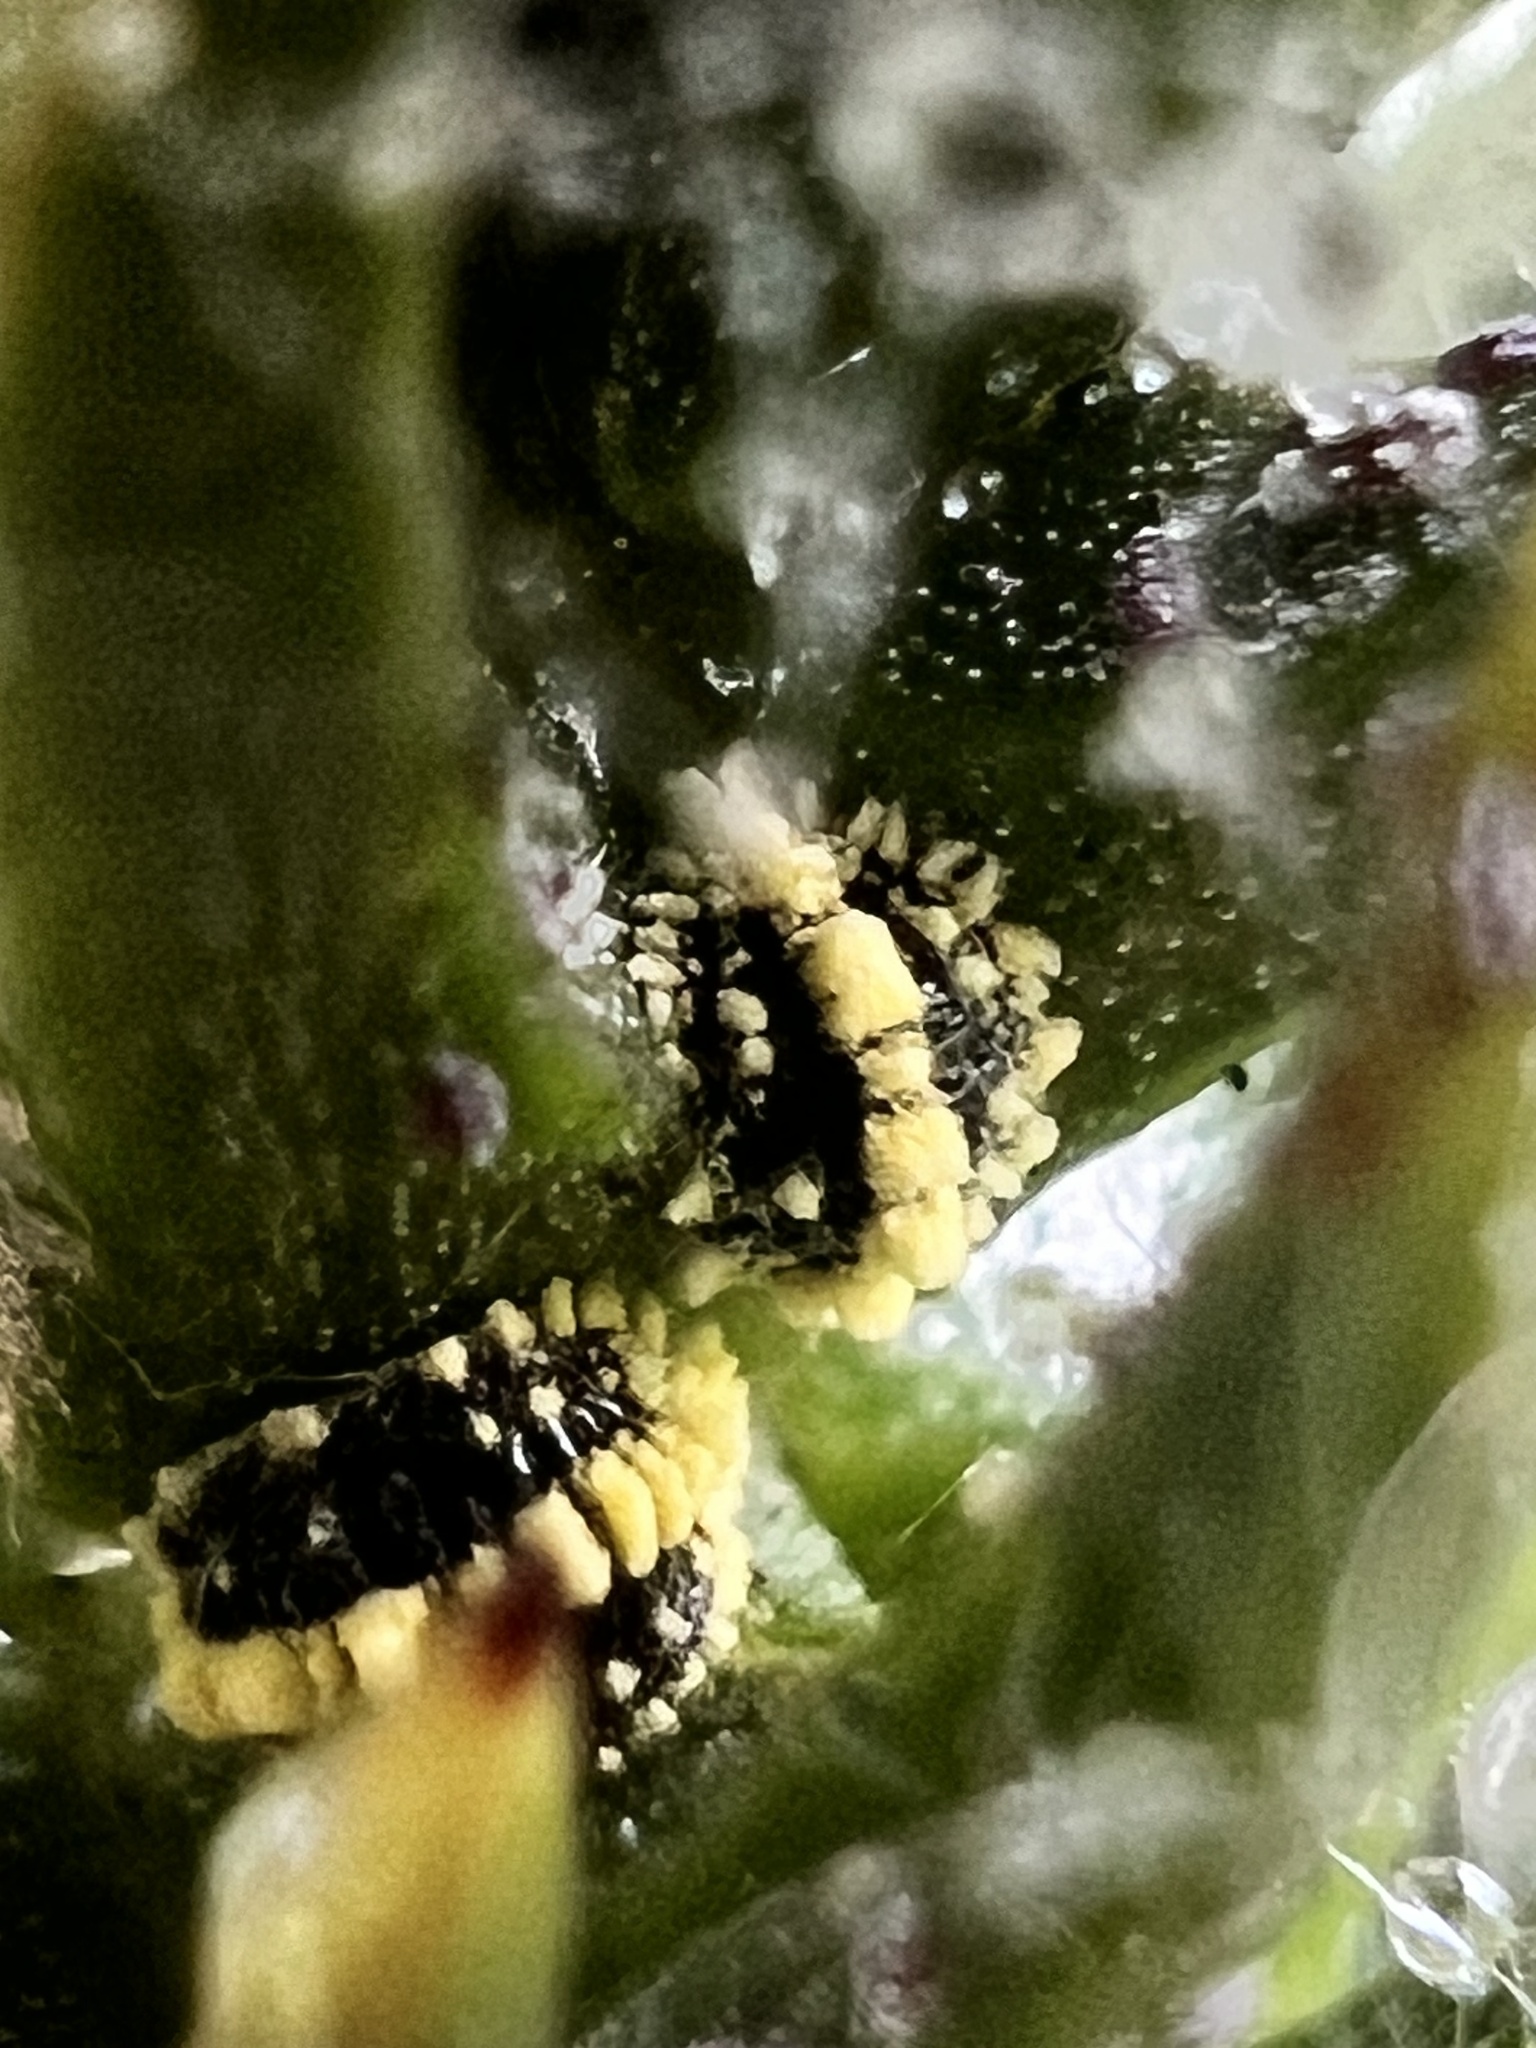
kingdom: Animalia
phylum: Arthropoda
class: Insecta
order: Hemiptera
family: Pseudococcidae
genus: Nipaecoccus
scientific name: Nipaecoccus aurilanatus
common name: Mealybug
